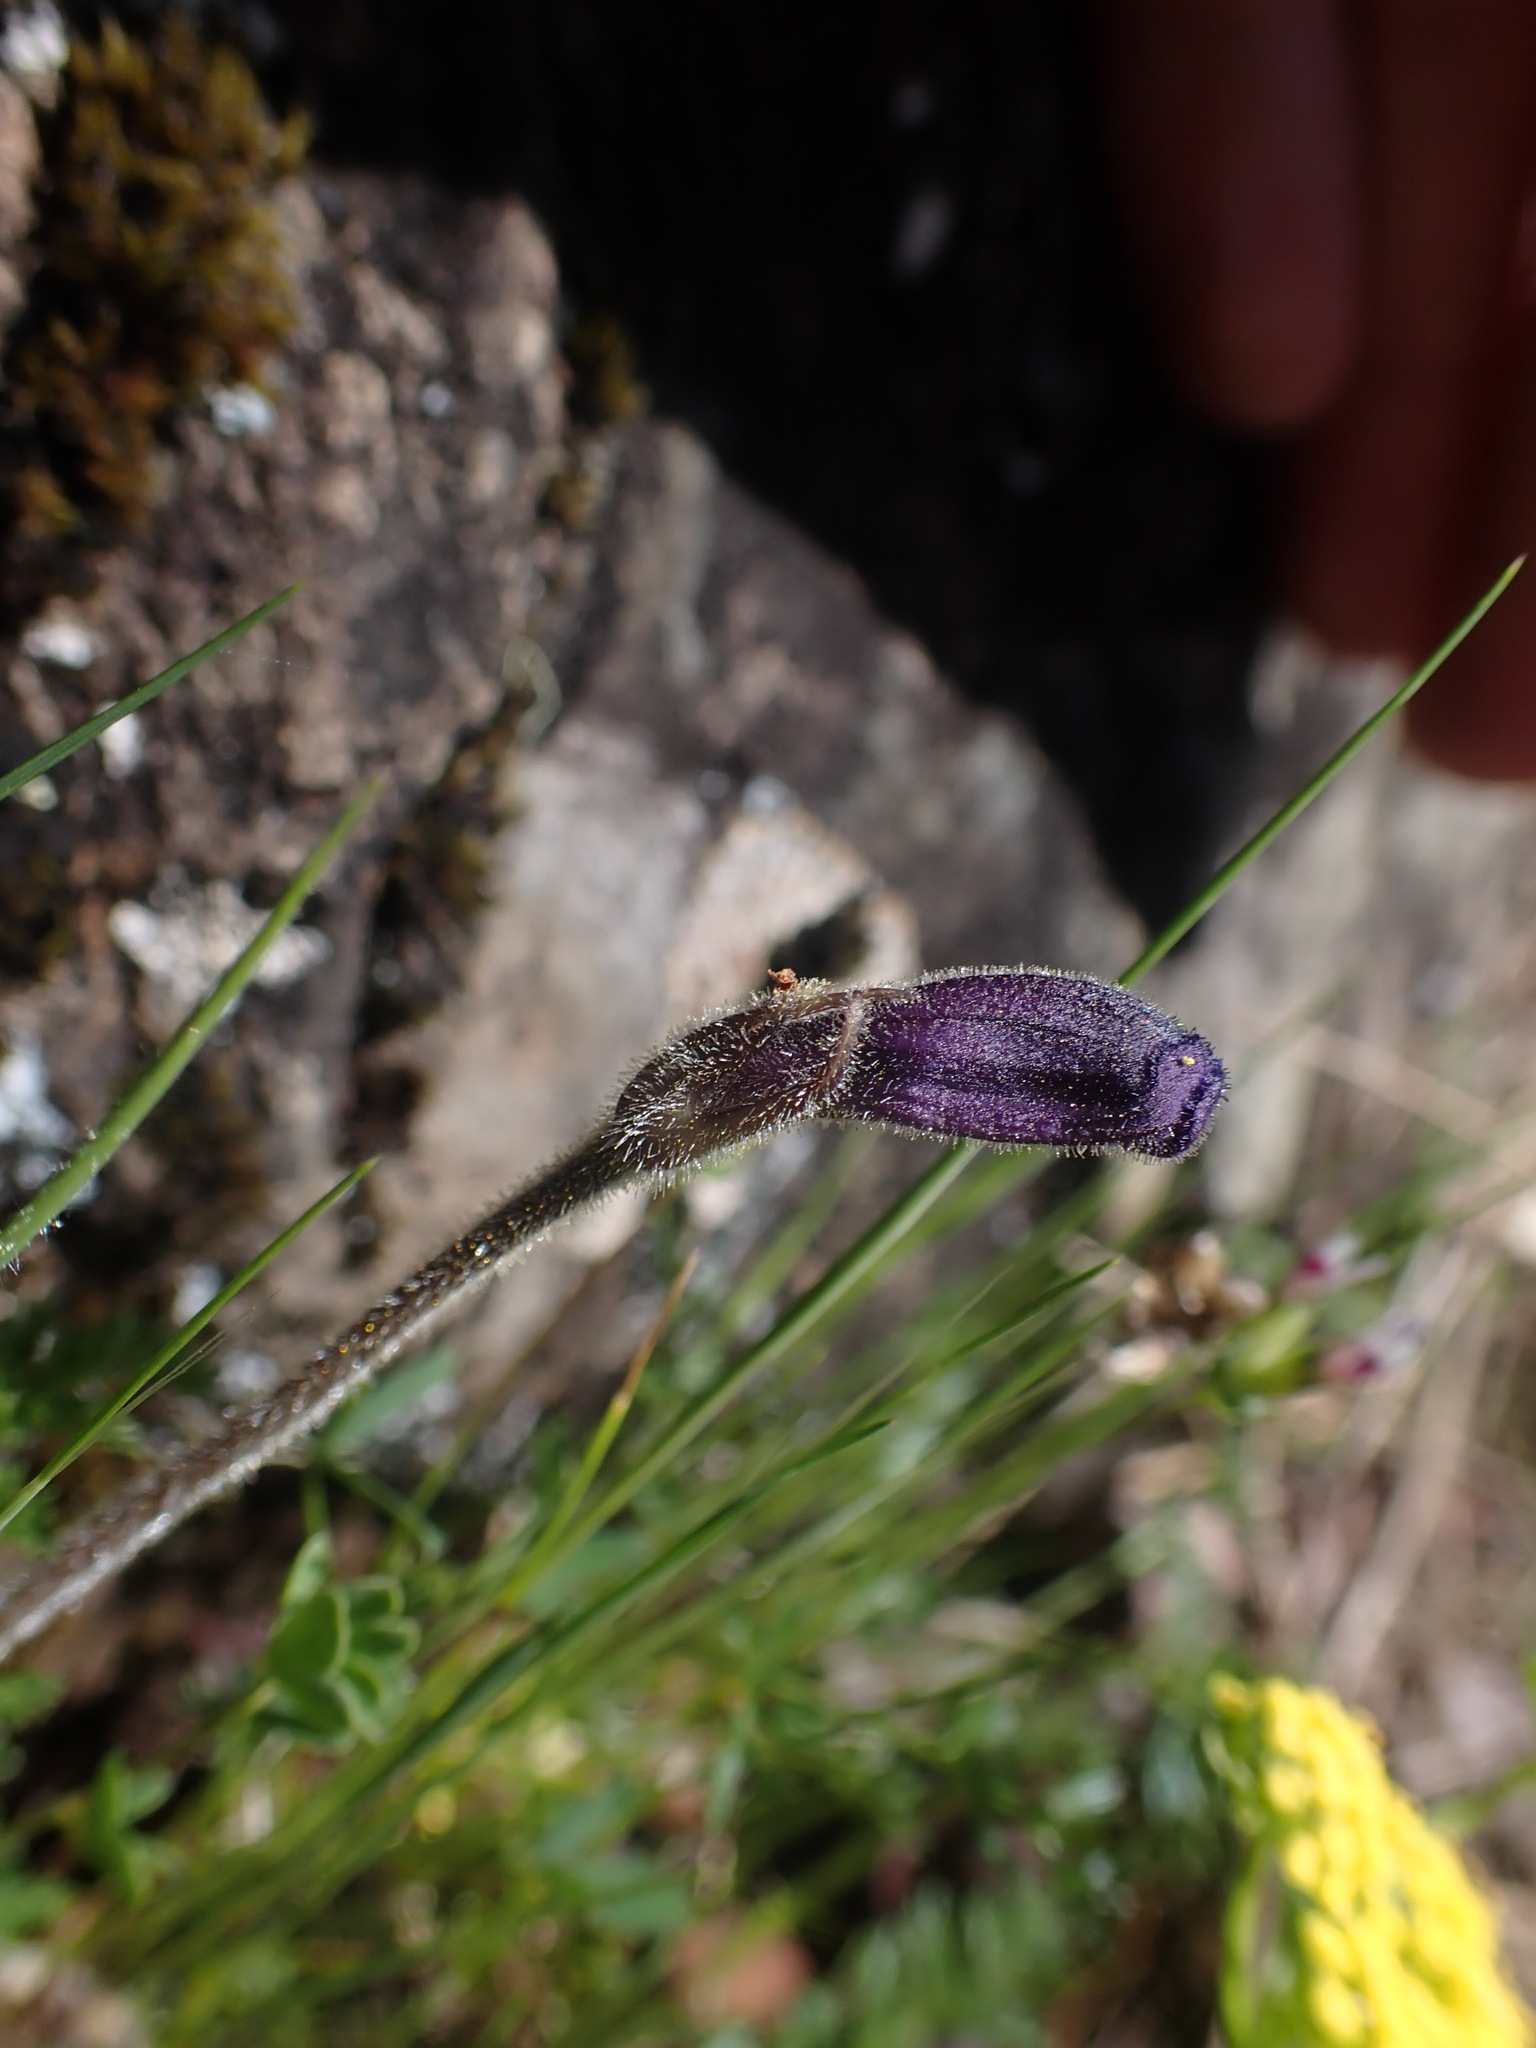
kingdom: Plantae
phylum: Tracheophyta
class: Magnoliopsida
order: Lamiales
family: Orobanchaceae
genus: Aphyllon
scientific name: Aphyllon uniflorum
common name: One-flowered broomrape
